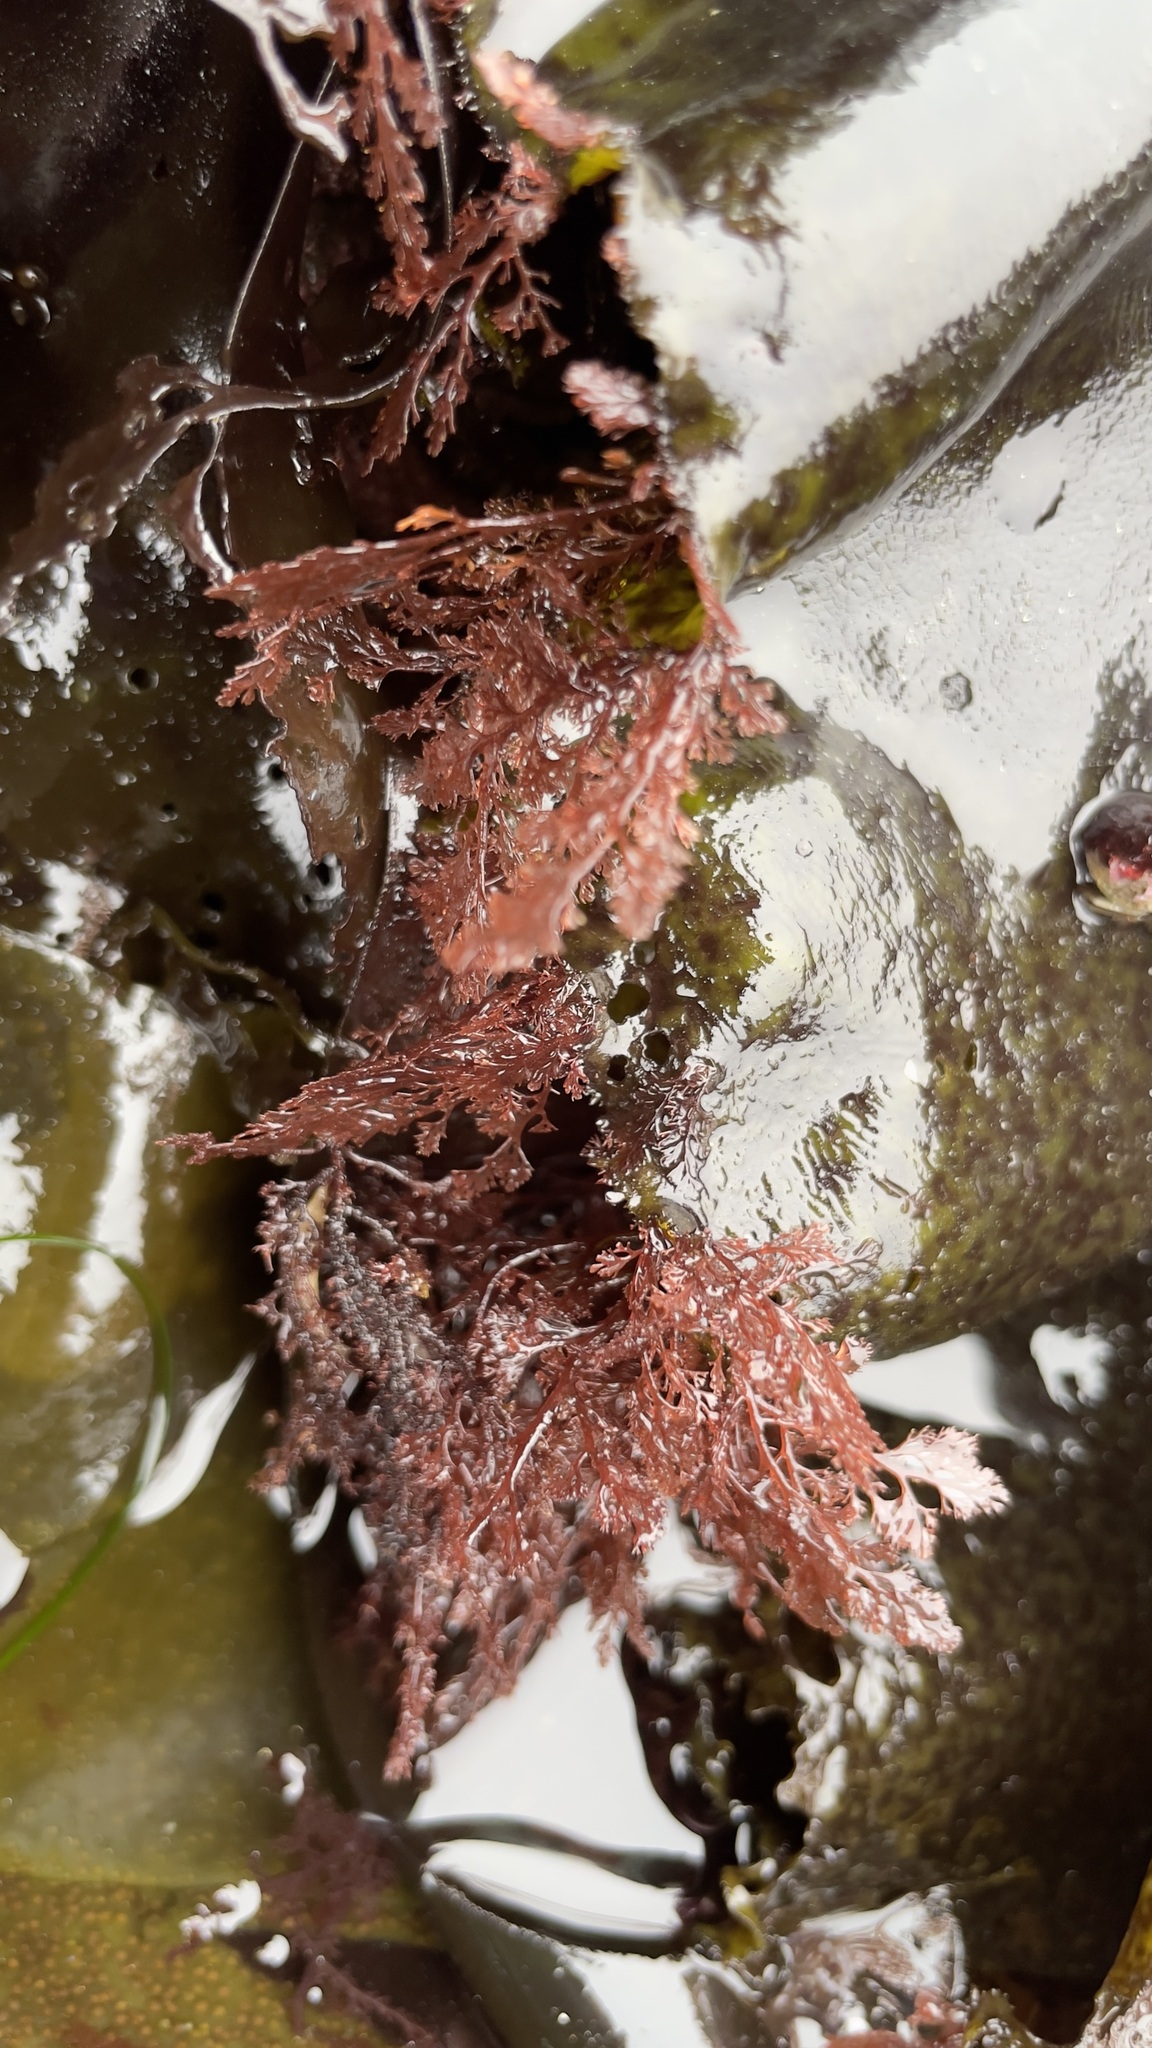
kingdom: Plantae
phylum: Rhodophyta
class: Florideophyceae
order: Ceramiales
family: Ceramiaceae
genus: Microcladia
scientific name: Microcladia coulteri
